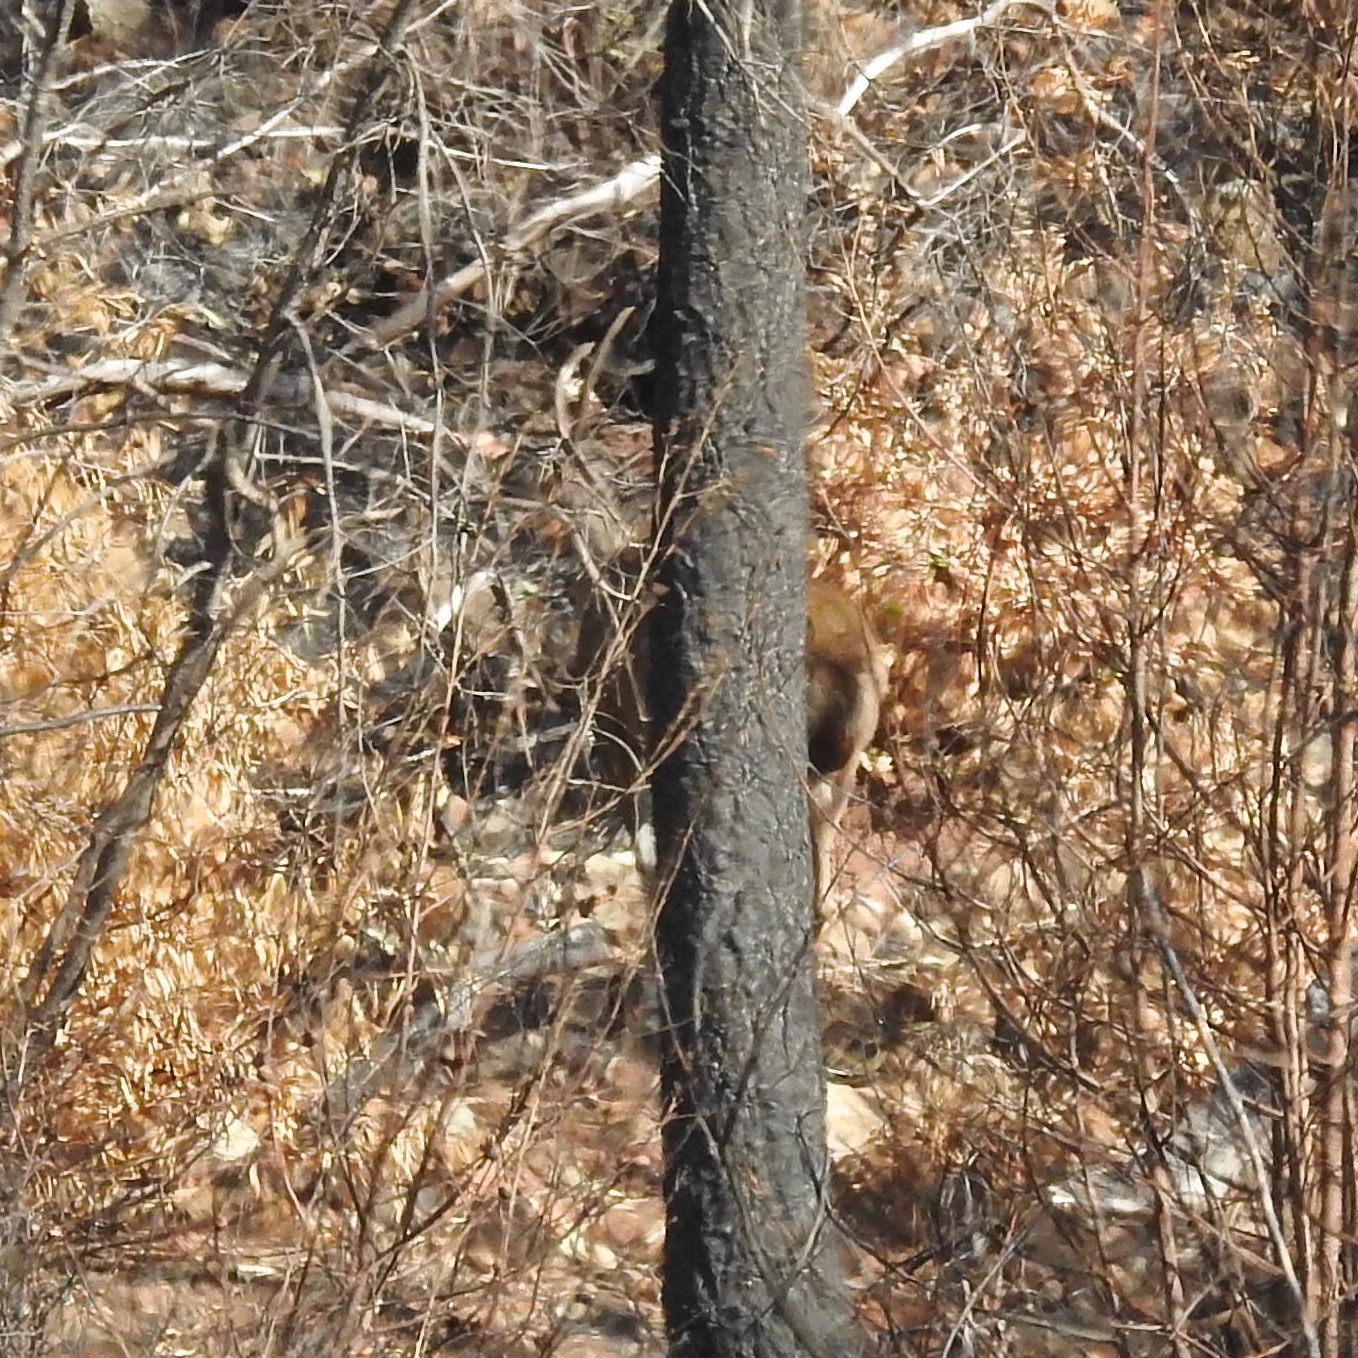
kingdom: Animalia
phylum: Chordata
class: Mammalia
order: Artiodactyla
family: Cervidae
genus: Odocoileus
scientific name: Odocoileus hemionus
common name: Mule deer
